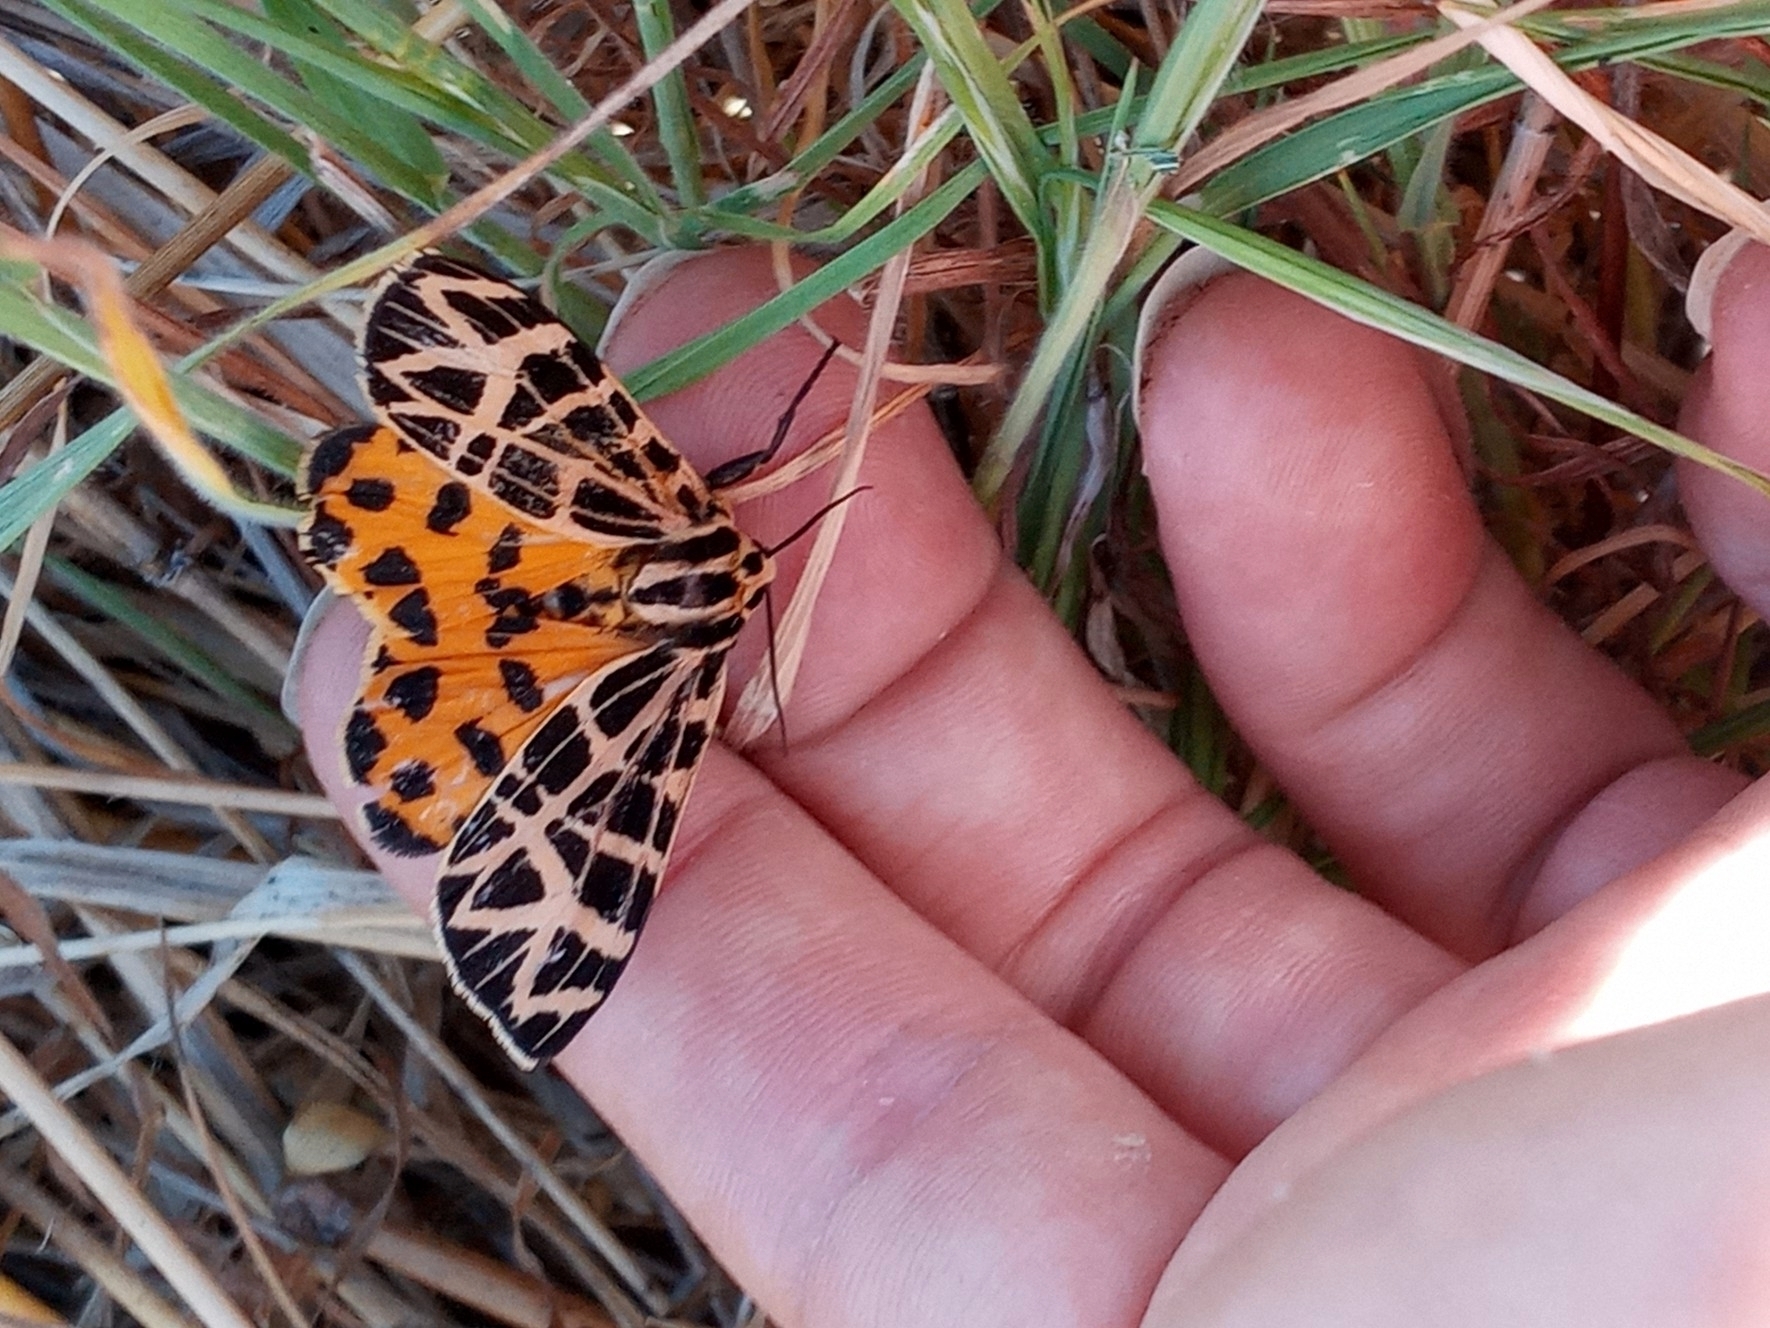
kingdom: Animalia
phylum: Arthropoda
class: Insecta
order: Lepidoptera
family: Erebidae
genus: Apantesis
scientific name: Apantesis
